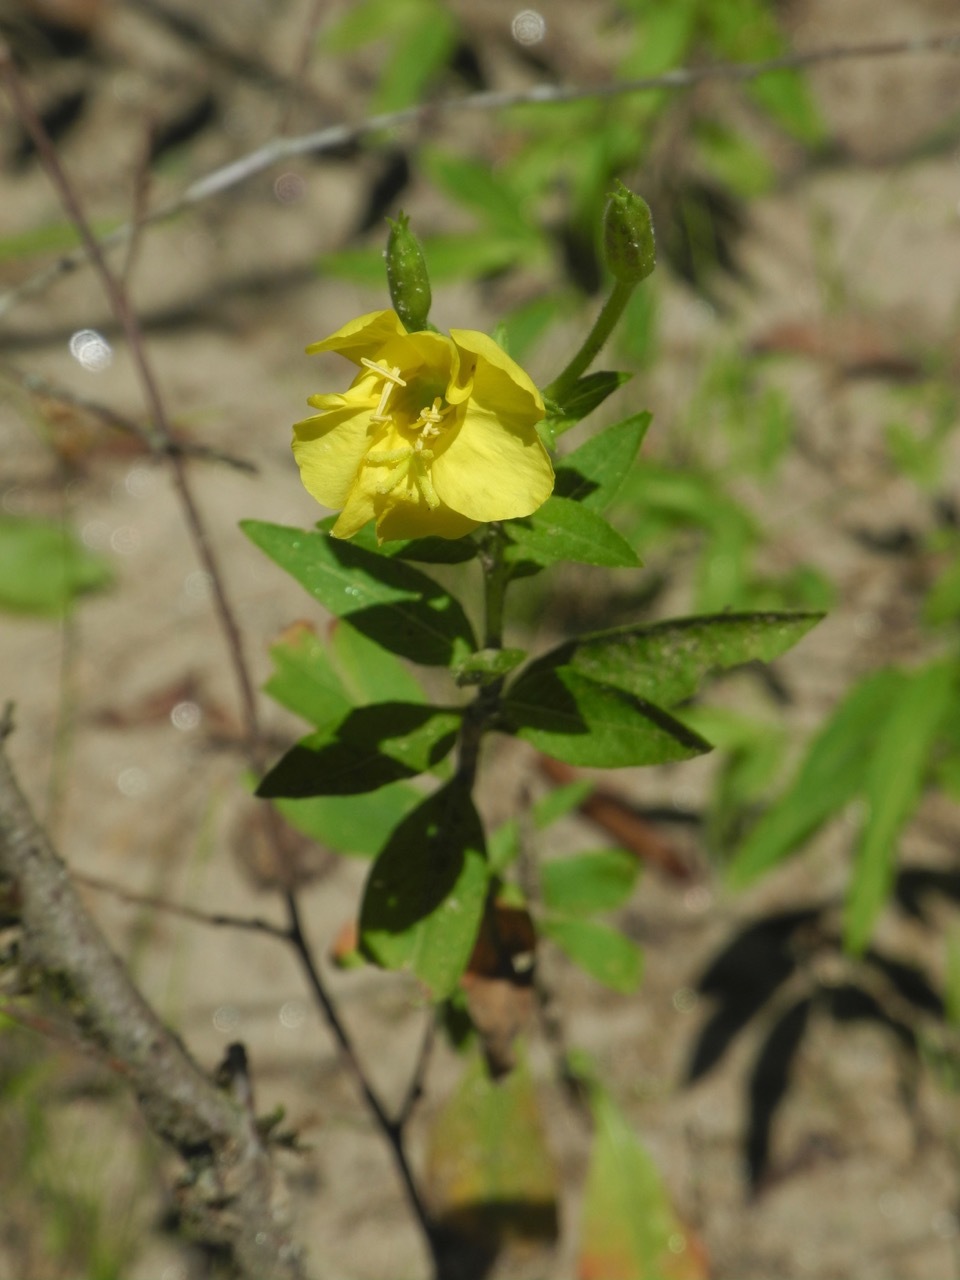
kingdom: Plantae
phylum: Tracheophyta
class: Magnoliopsida
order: Myrtales
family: Onagraceae
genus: Oenothera
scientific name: Oenothera biennis
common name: Common evening-primrose
